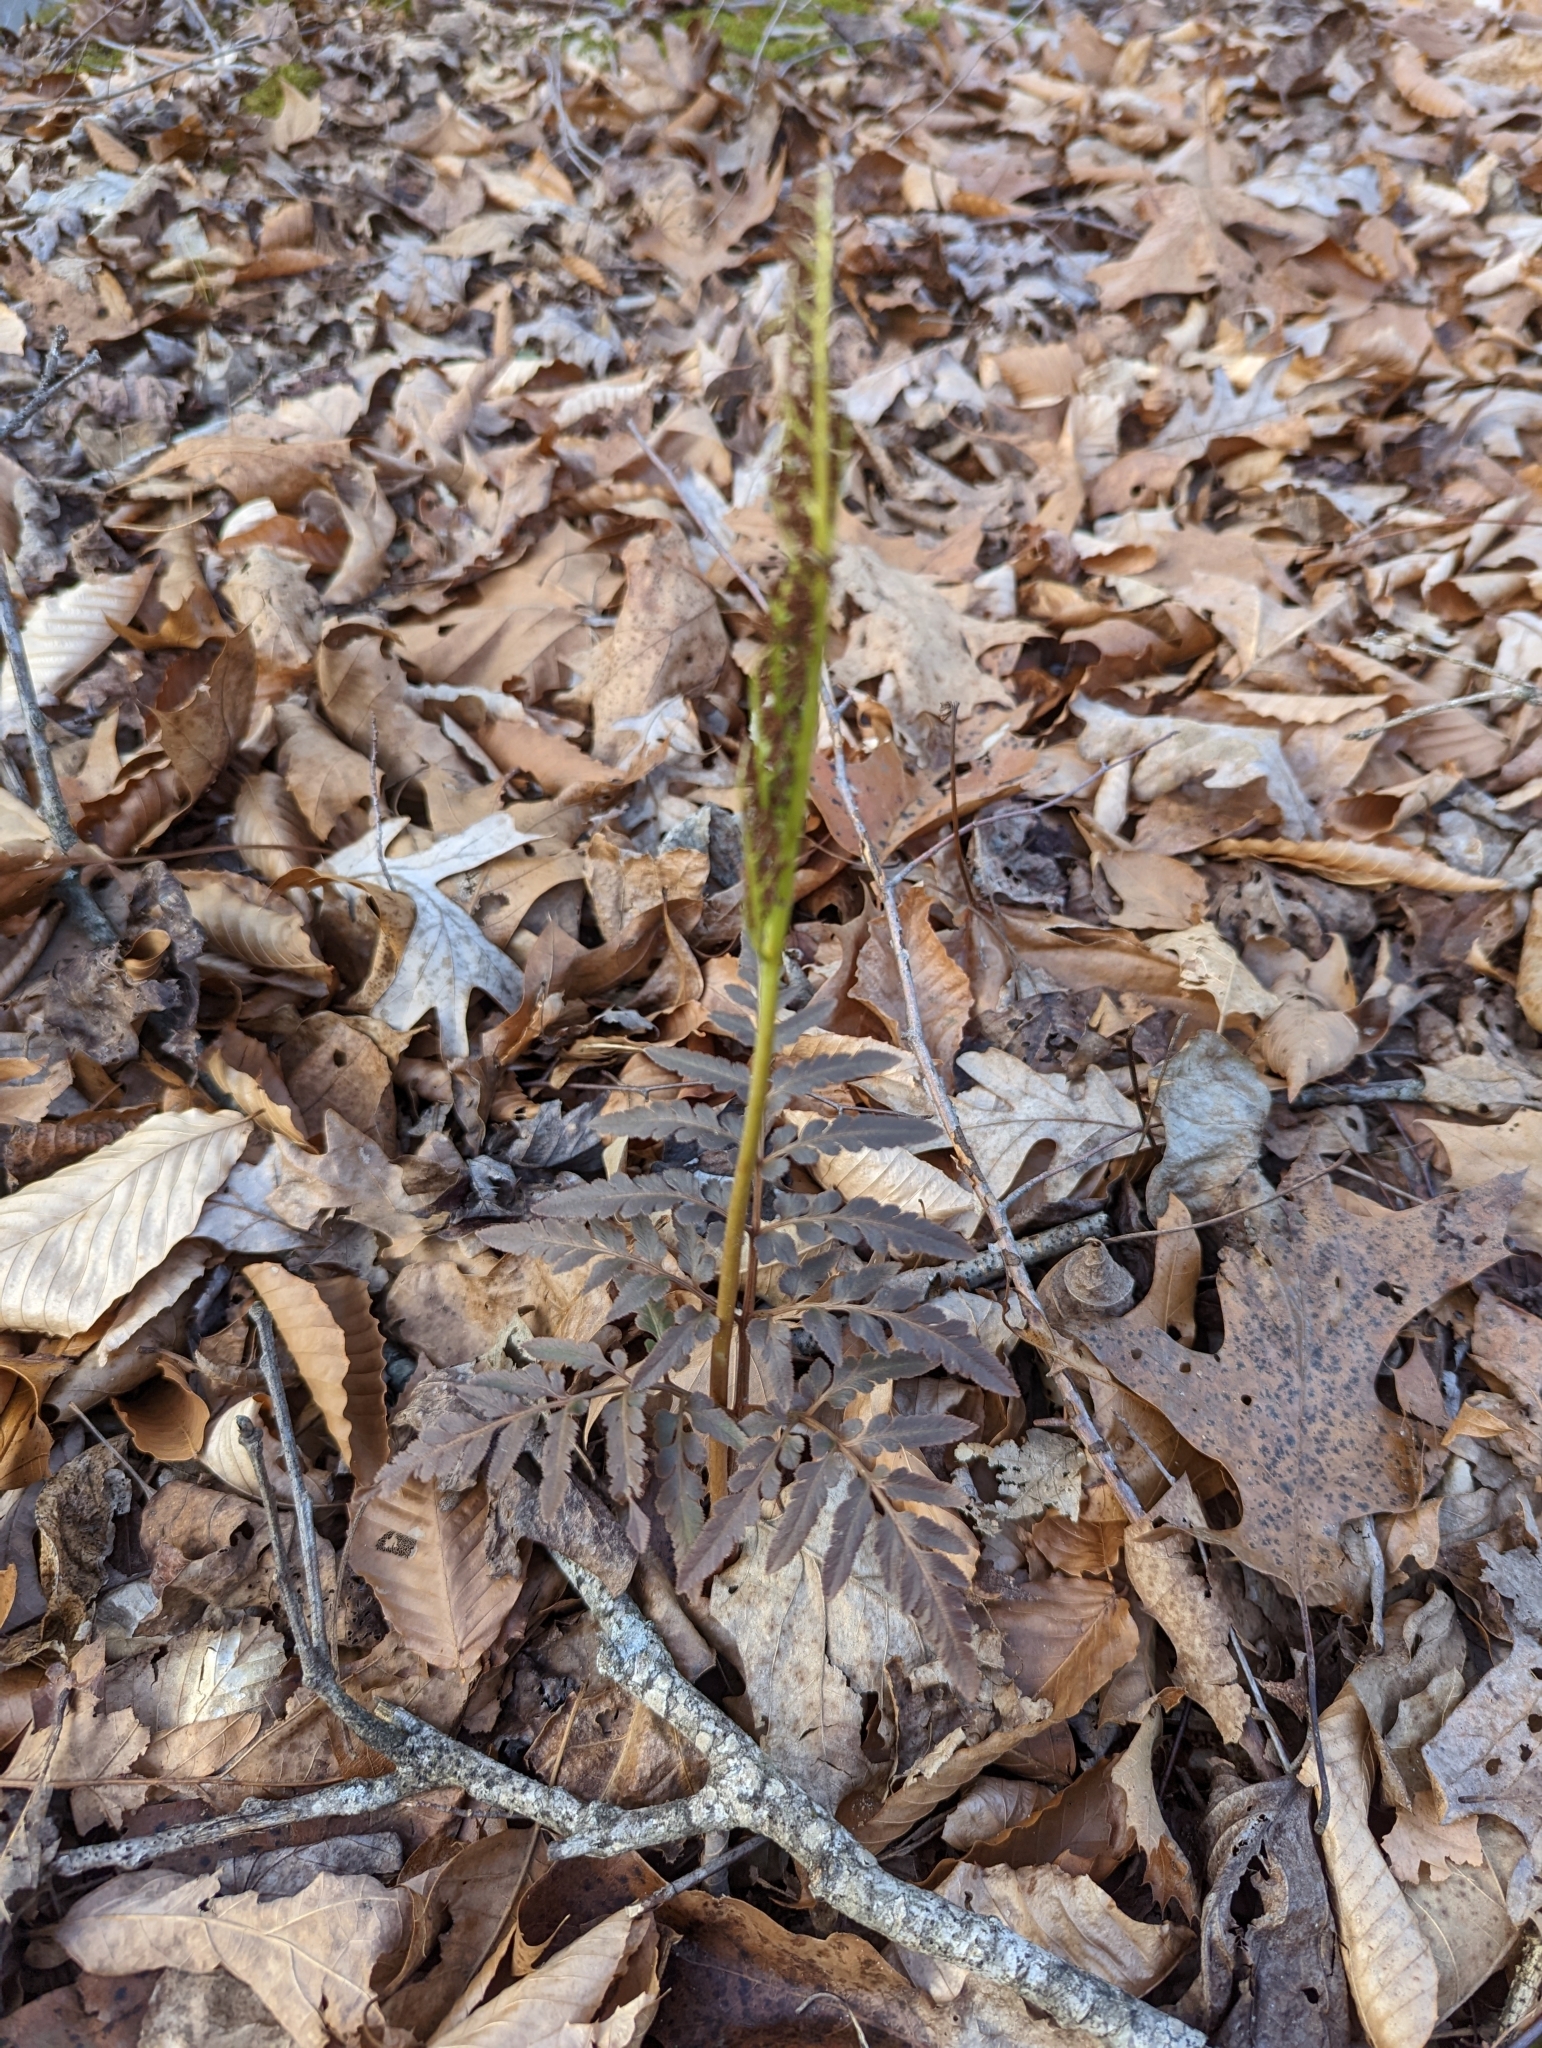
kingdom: Plantae
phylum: Tracheophyta
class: Polypodiopsida
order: Ophioglossales
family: Ophioglossaceae
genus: Sceptridium
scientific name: Sceptridium dissectum
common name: Cut-leaved grapefern
